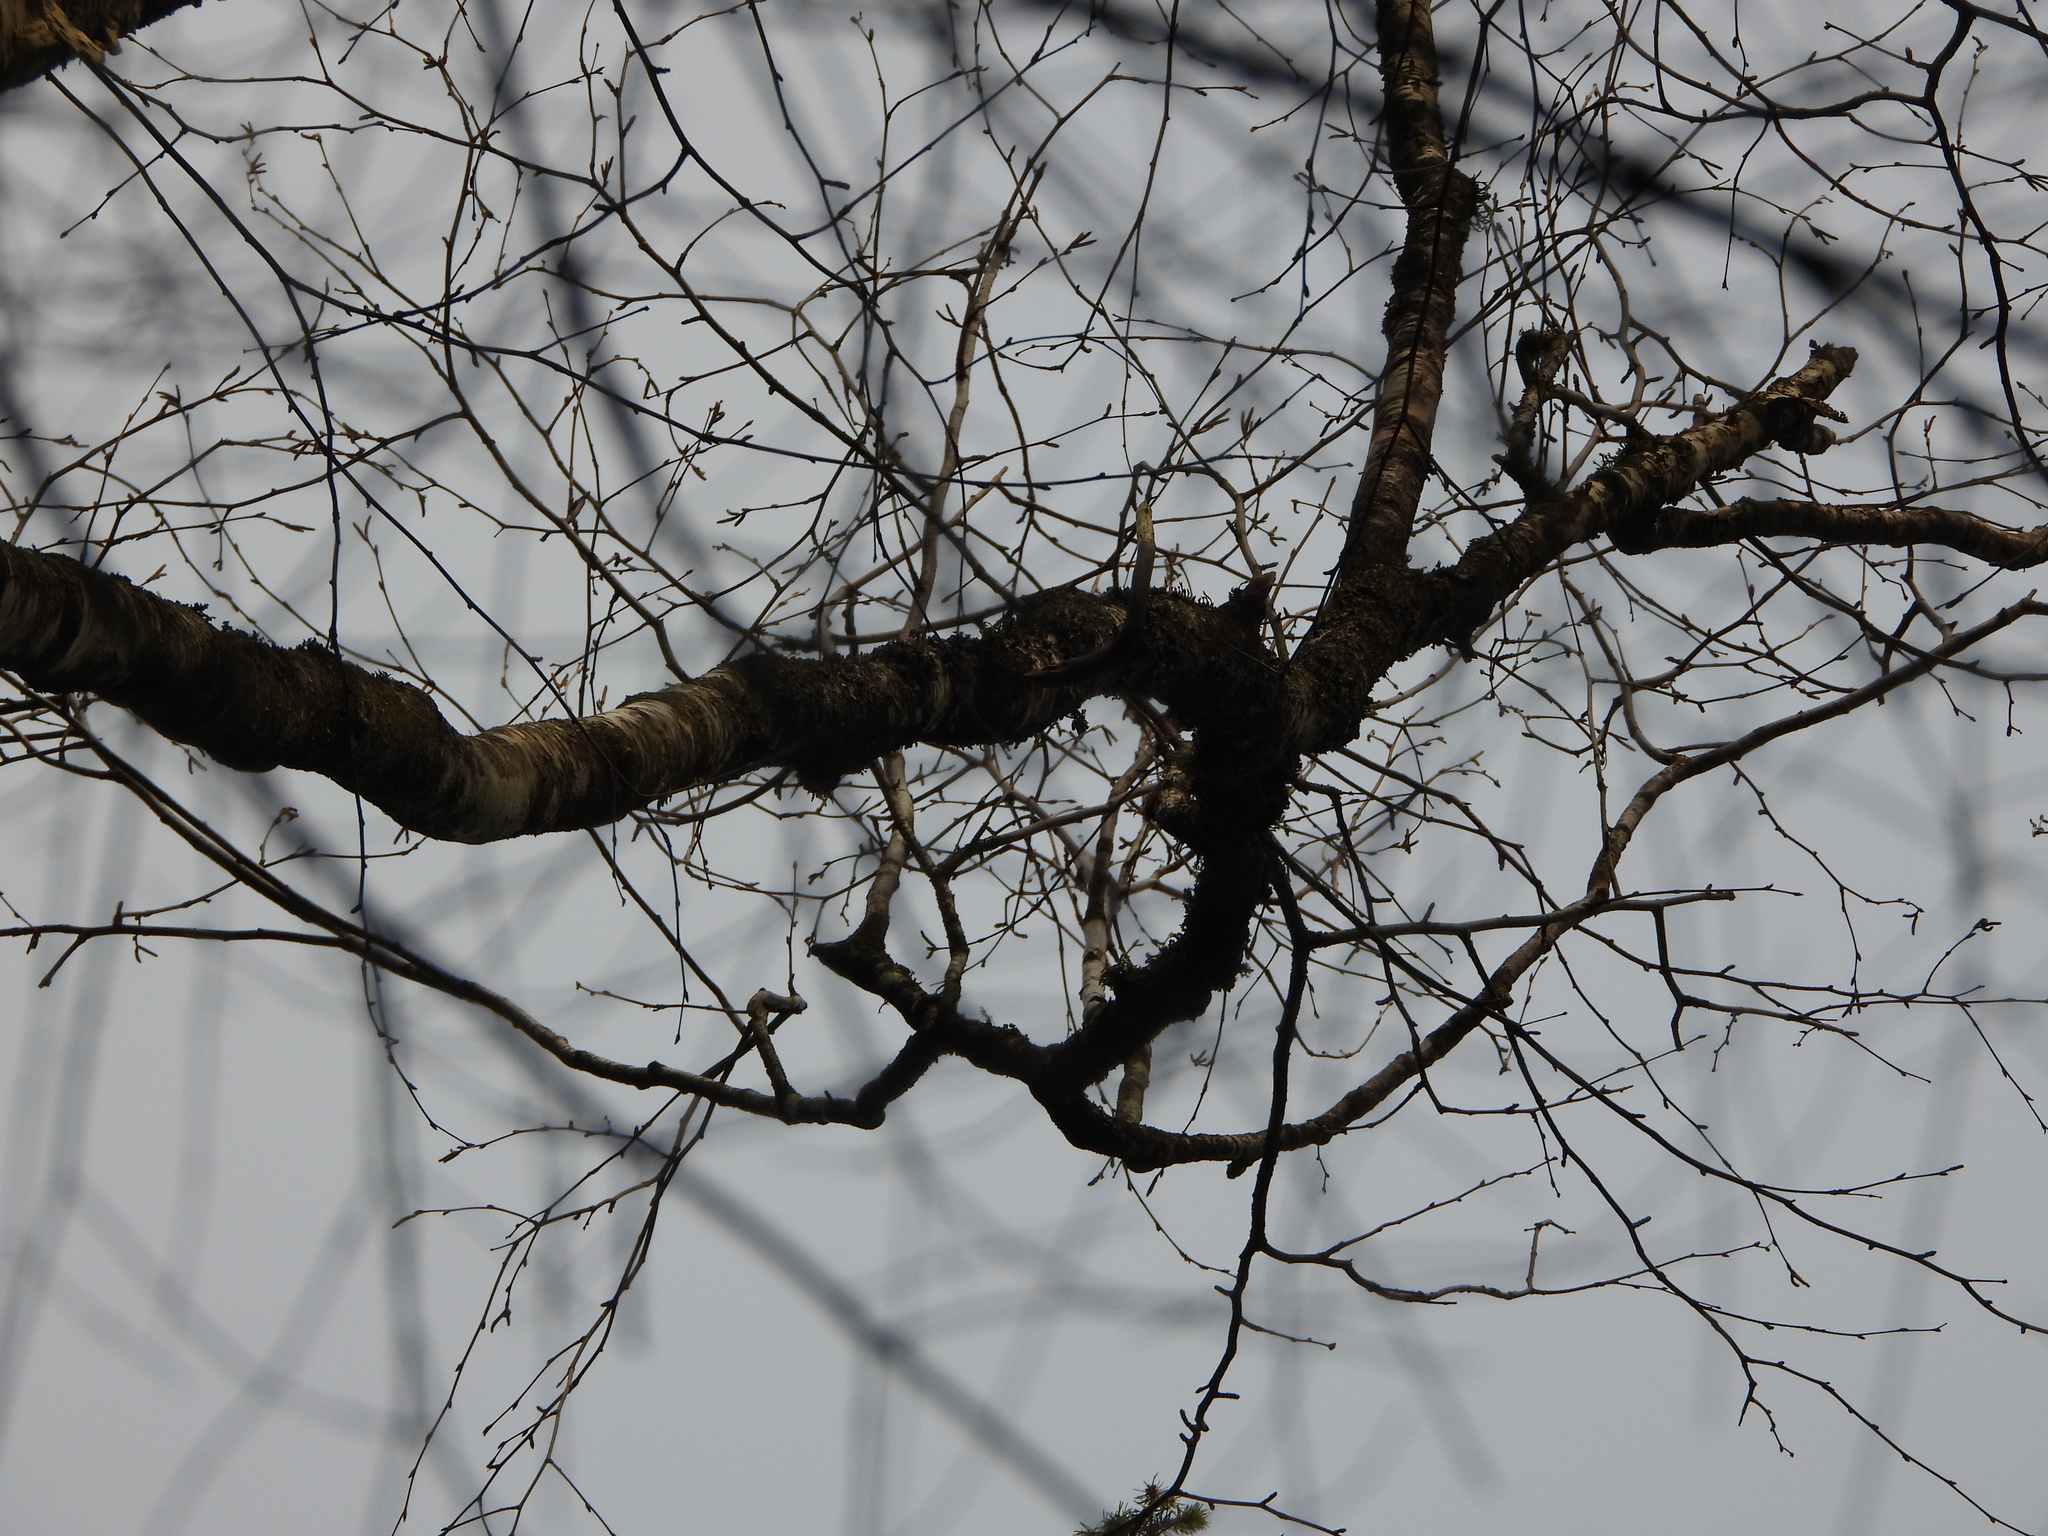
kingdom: Plantae
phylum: Tracheophyta
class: Magnoliopsida
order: Fagales
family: Betulaceae
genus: Betula
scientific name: Betula papyrifera
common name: Paper birch
